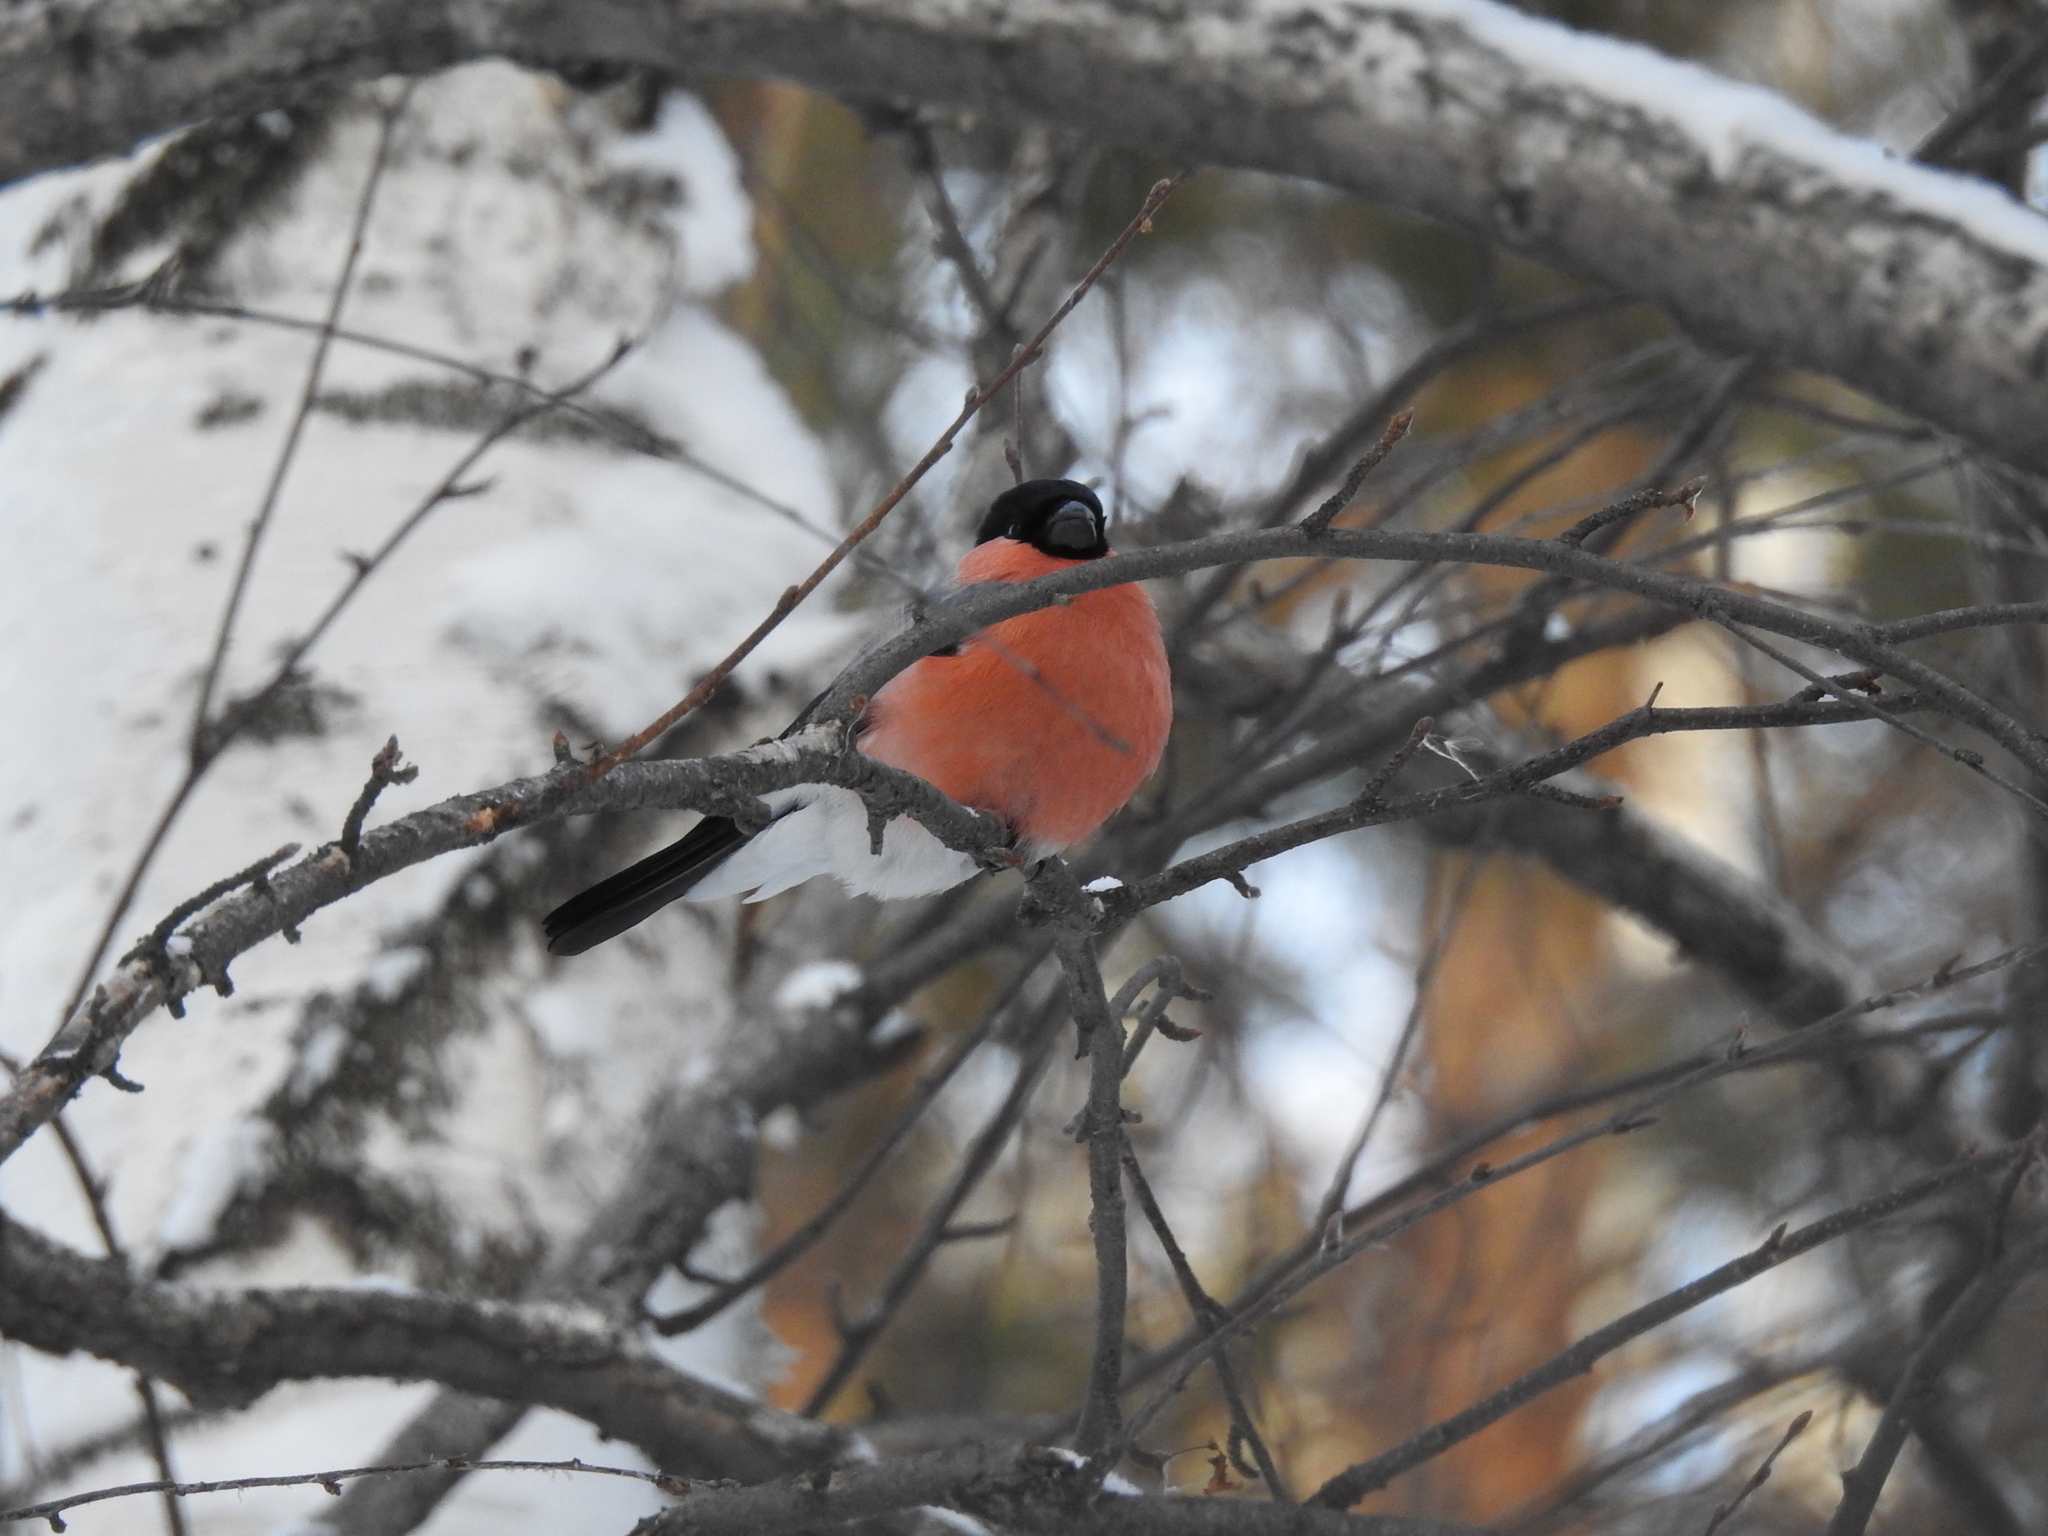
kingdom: Animalia
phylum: Chordata
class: Aves
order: Passeriformes
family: Fringillidae
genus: Pyrrhula
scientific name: Pyrrhula pyrrhula
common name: Eurasian bullfinch
